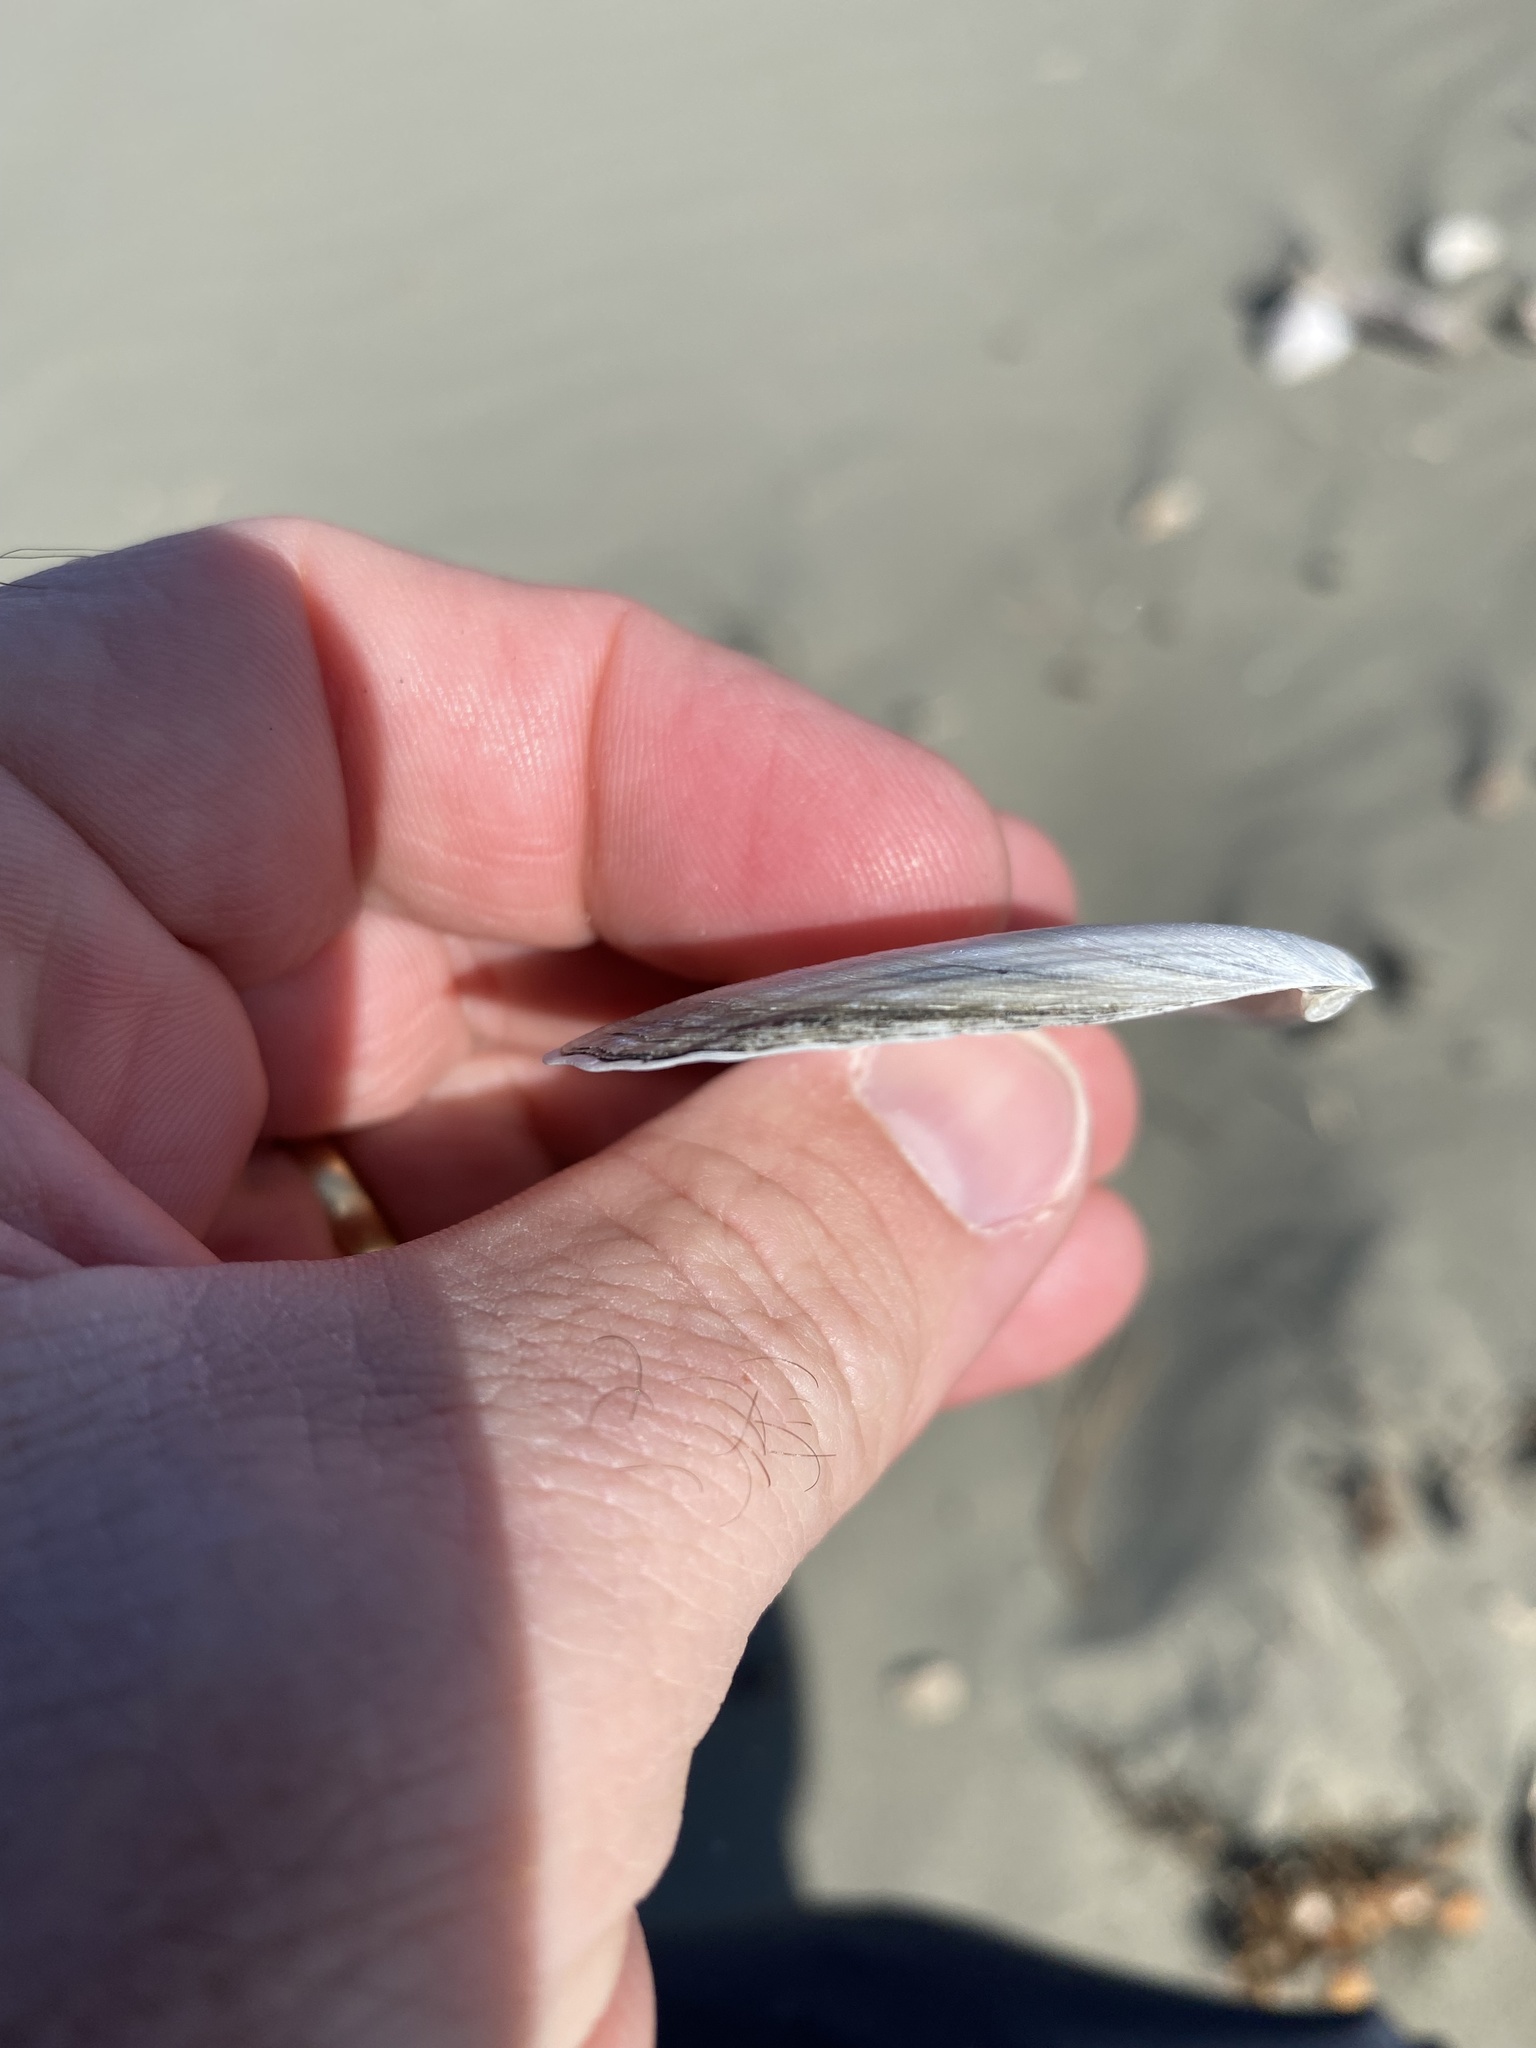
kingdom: Animalia
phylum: Mollusca
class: Bivalvia
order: Cardiida
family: Tellinidae
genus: Bartschicoma
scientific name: Bartschicoma gaimardi
